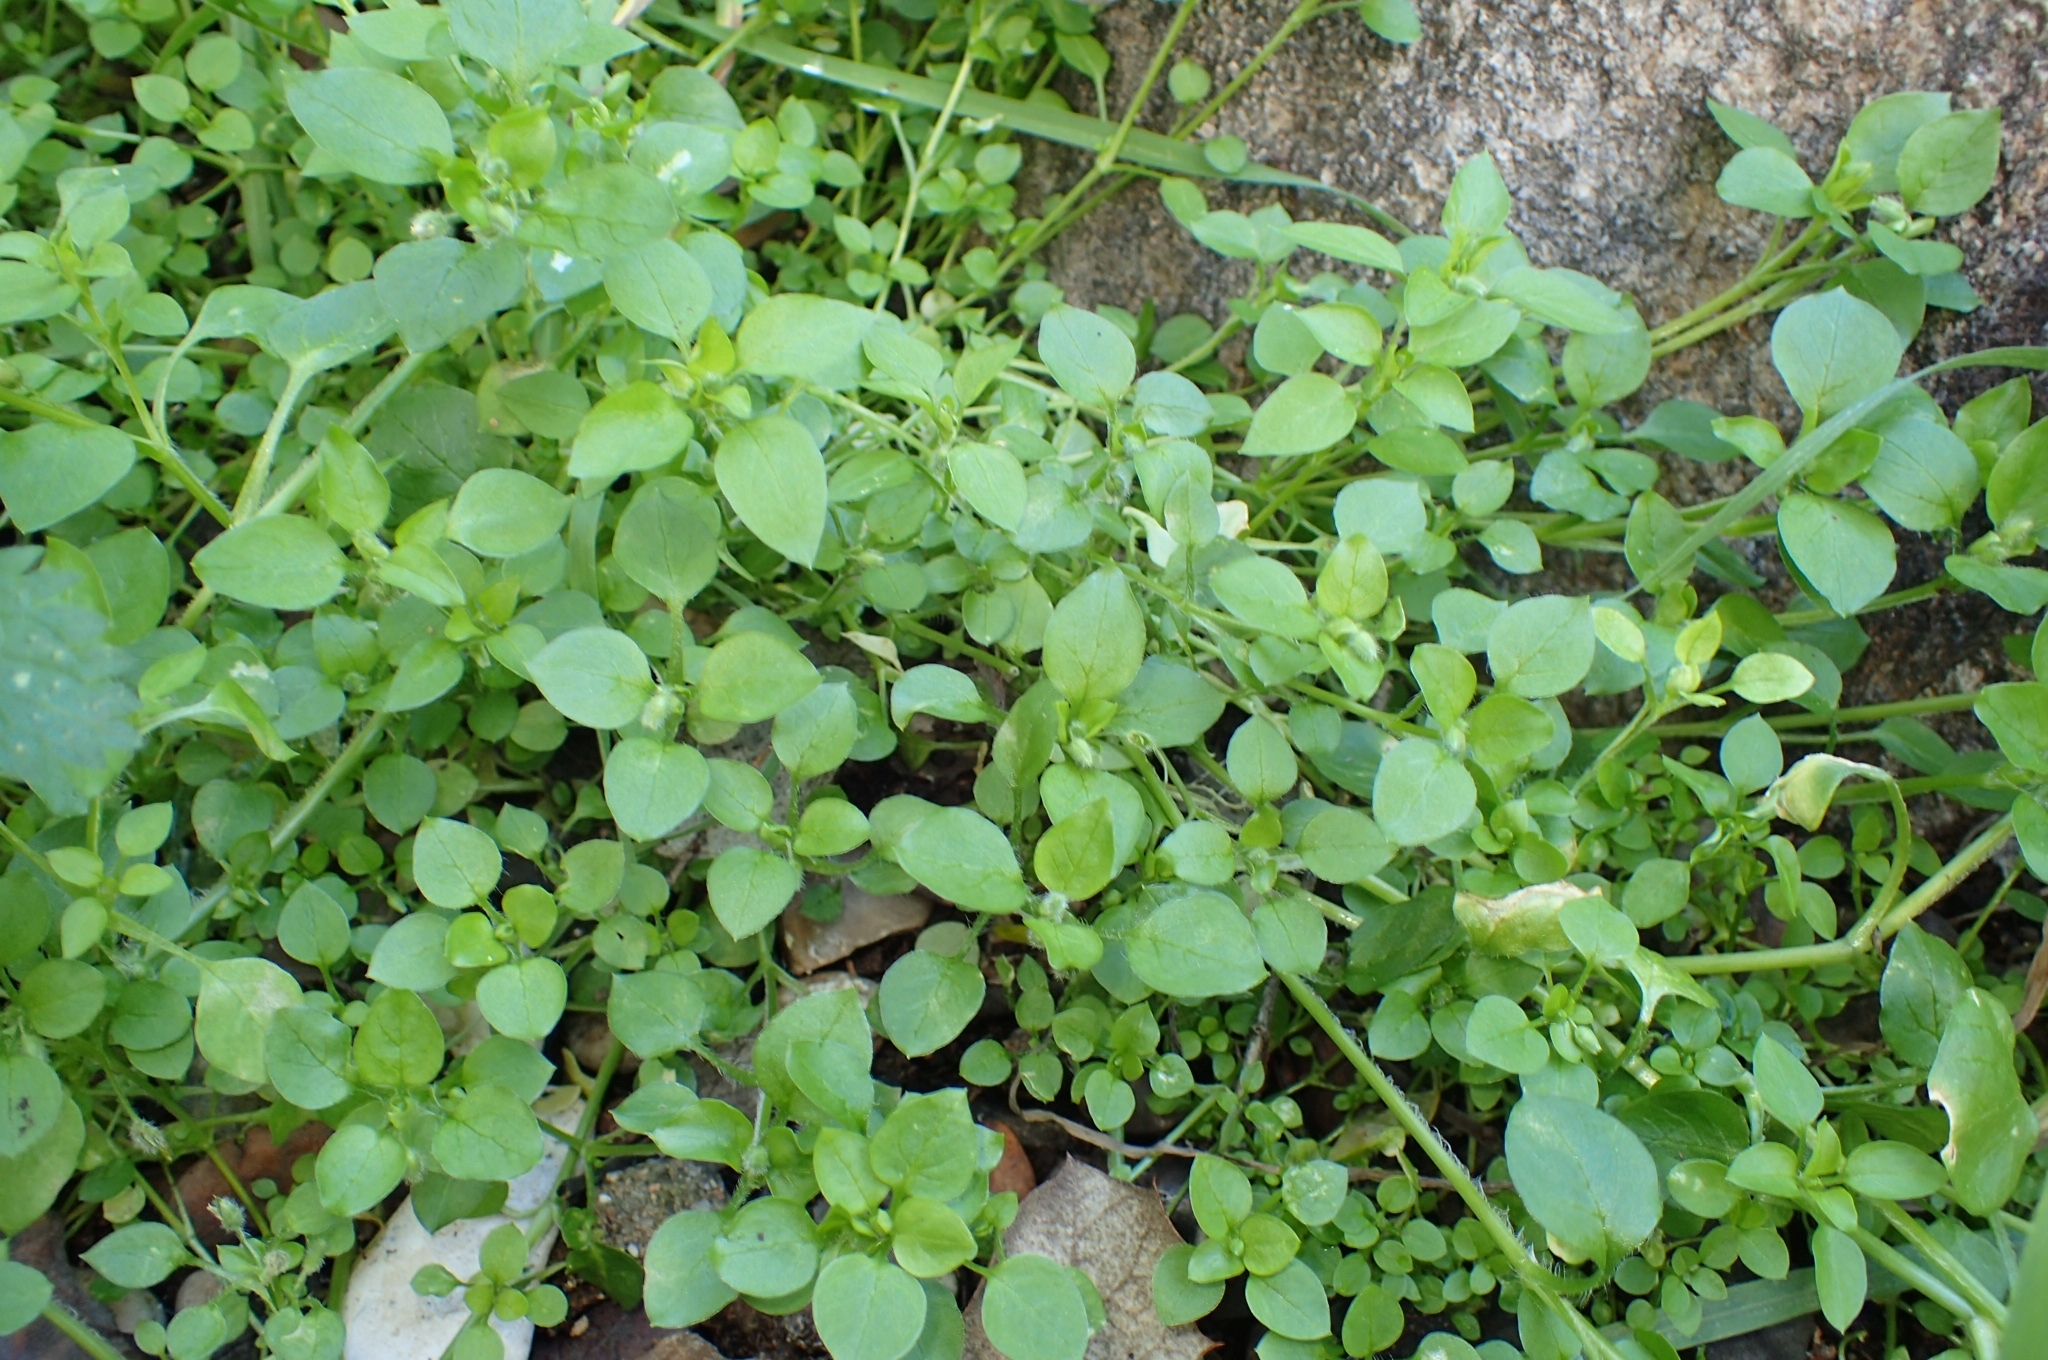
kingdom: Plantae
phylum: Tracheophyta
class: Magnoliopsida
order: Caryophyllales
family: Caryophyllaceae
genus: Stellaria
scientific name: Stellaria media
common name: Common chickweed
